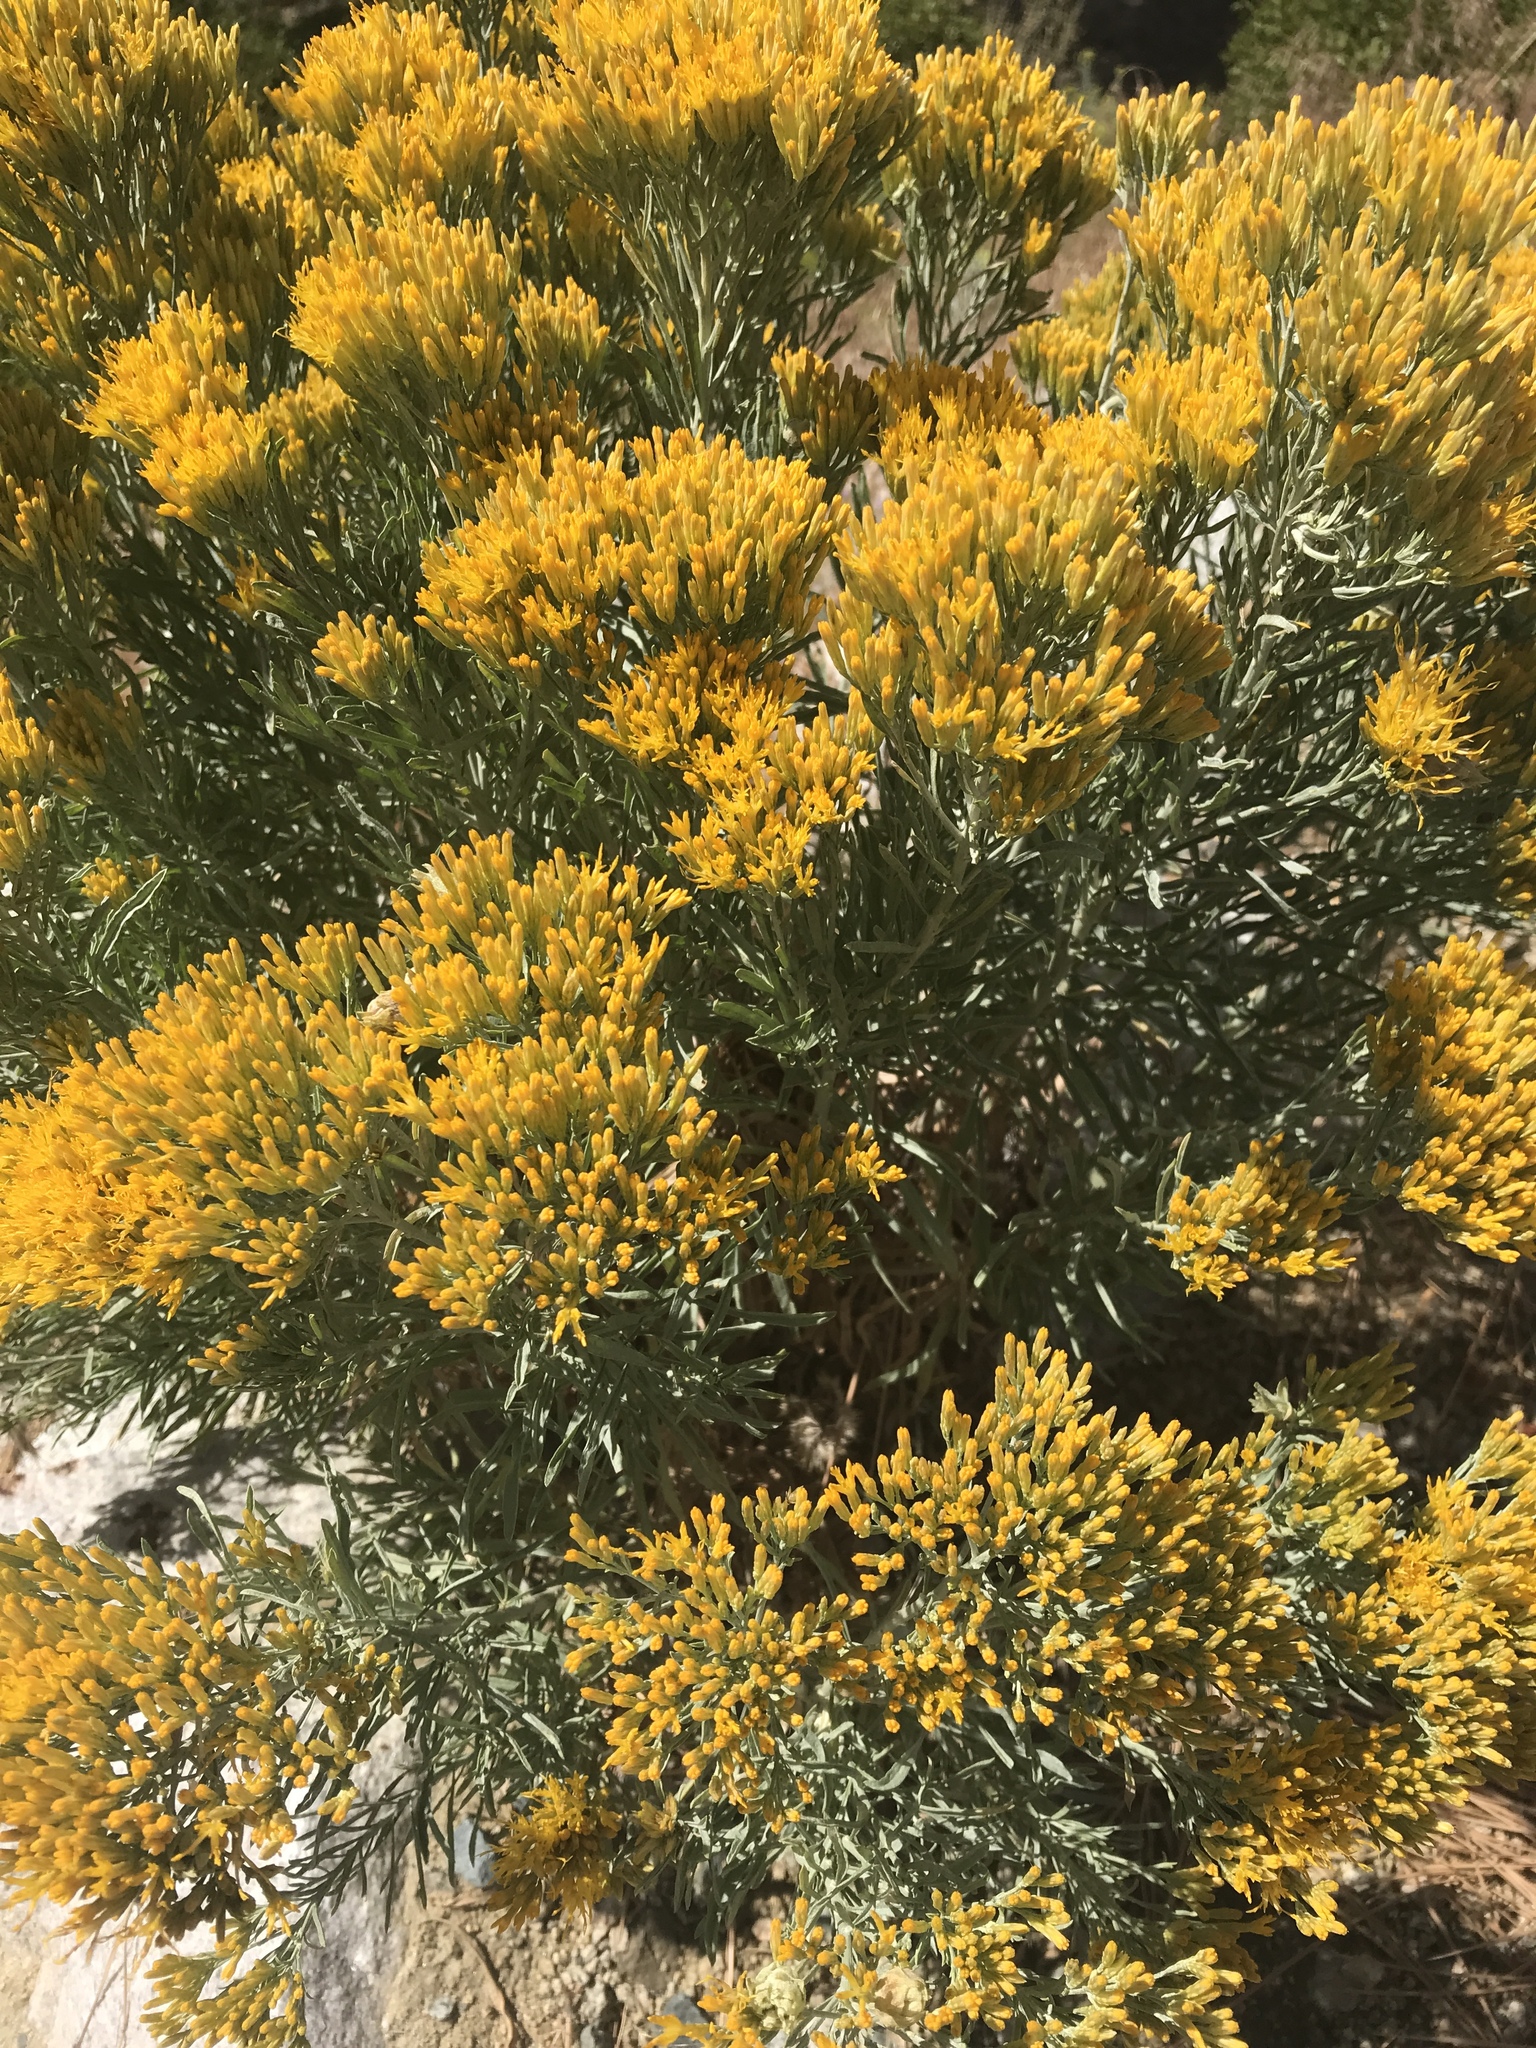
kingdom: Plantae
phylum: Tracheophyta
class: Magnoliopsida
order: Asterales
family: Asteraceae
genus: Ericameria
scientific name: Ericameria nauseosa
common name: Rubber rabbitbrush
